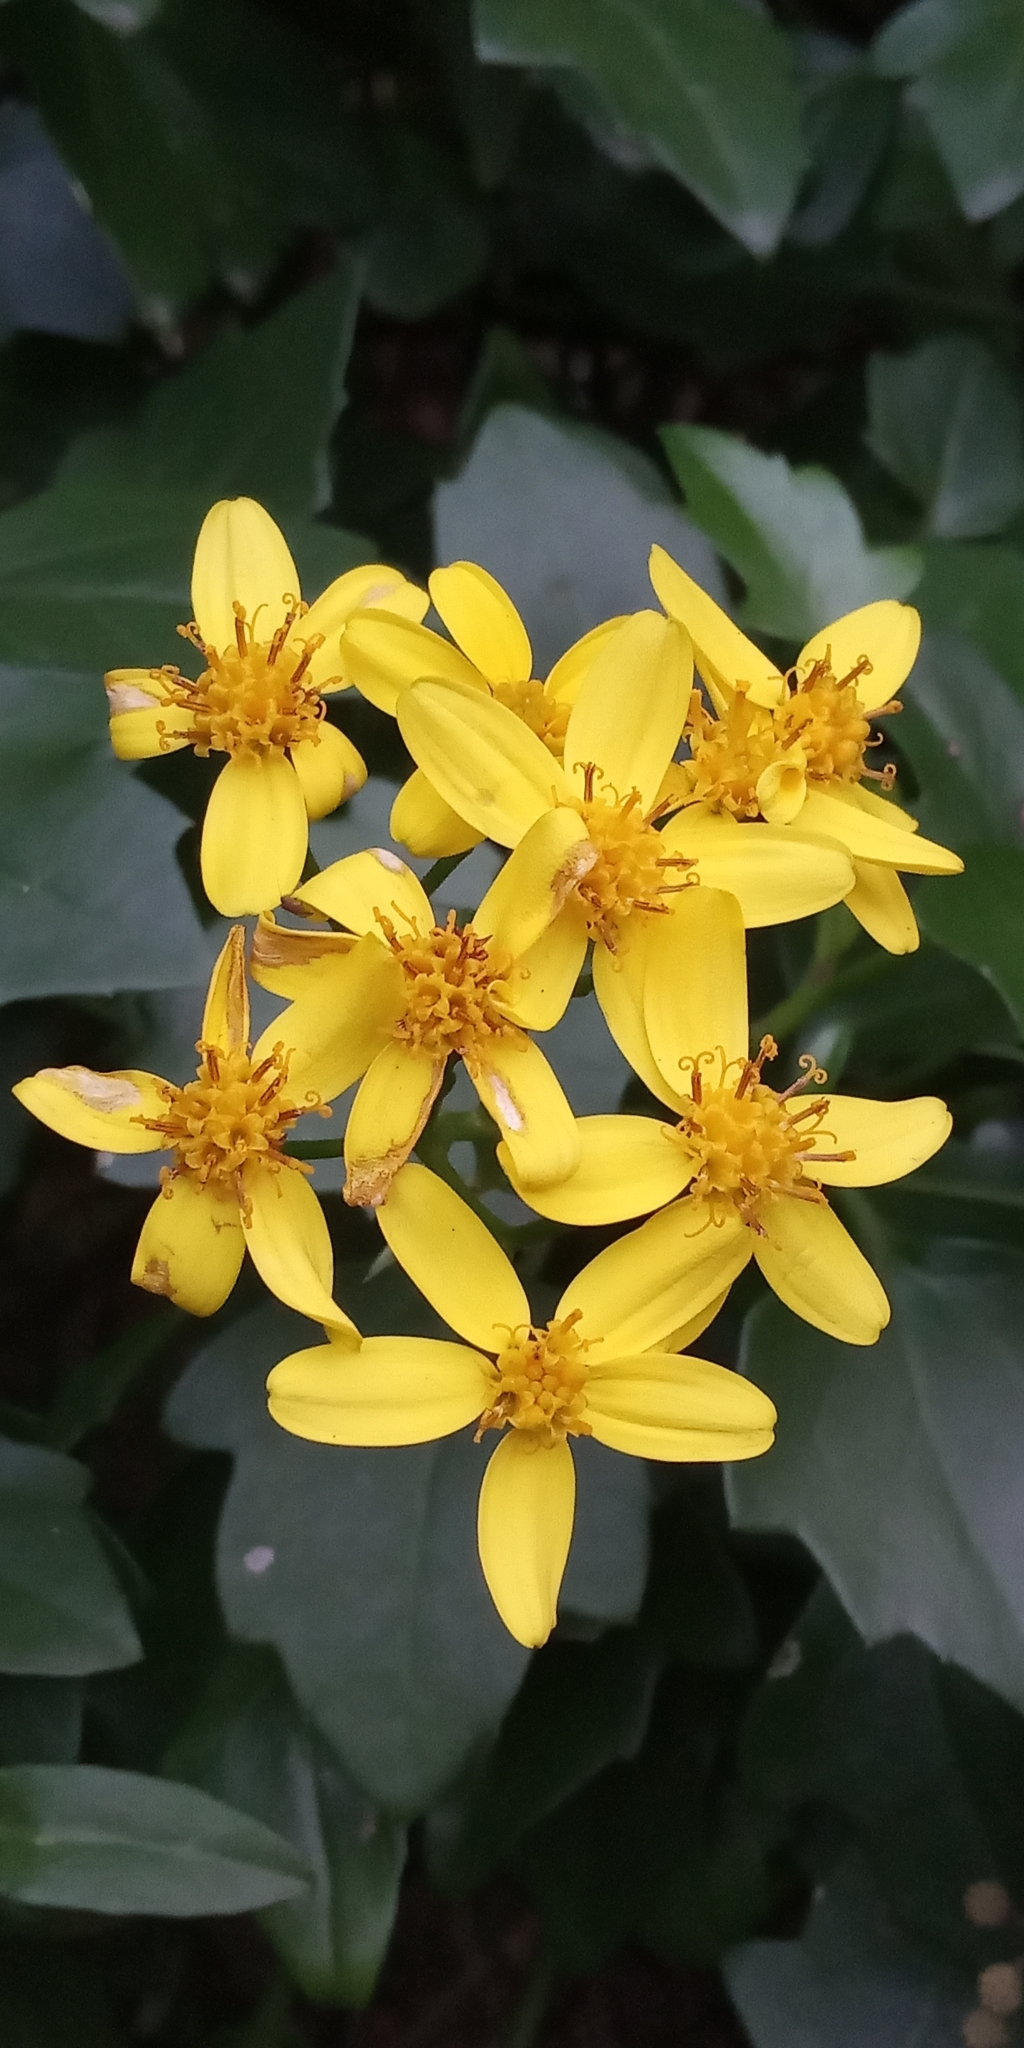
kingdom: Plantae
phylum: Tracheophyta
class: Magnoliopsida
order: Asterales
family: Asteraceae
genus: Senecio
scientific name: Senecio angulatus
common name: Climbing groundsel
